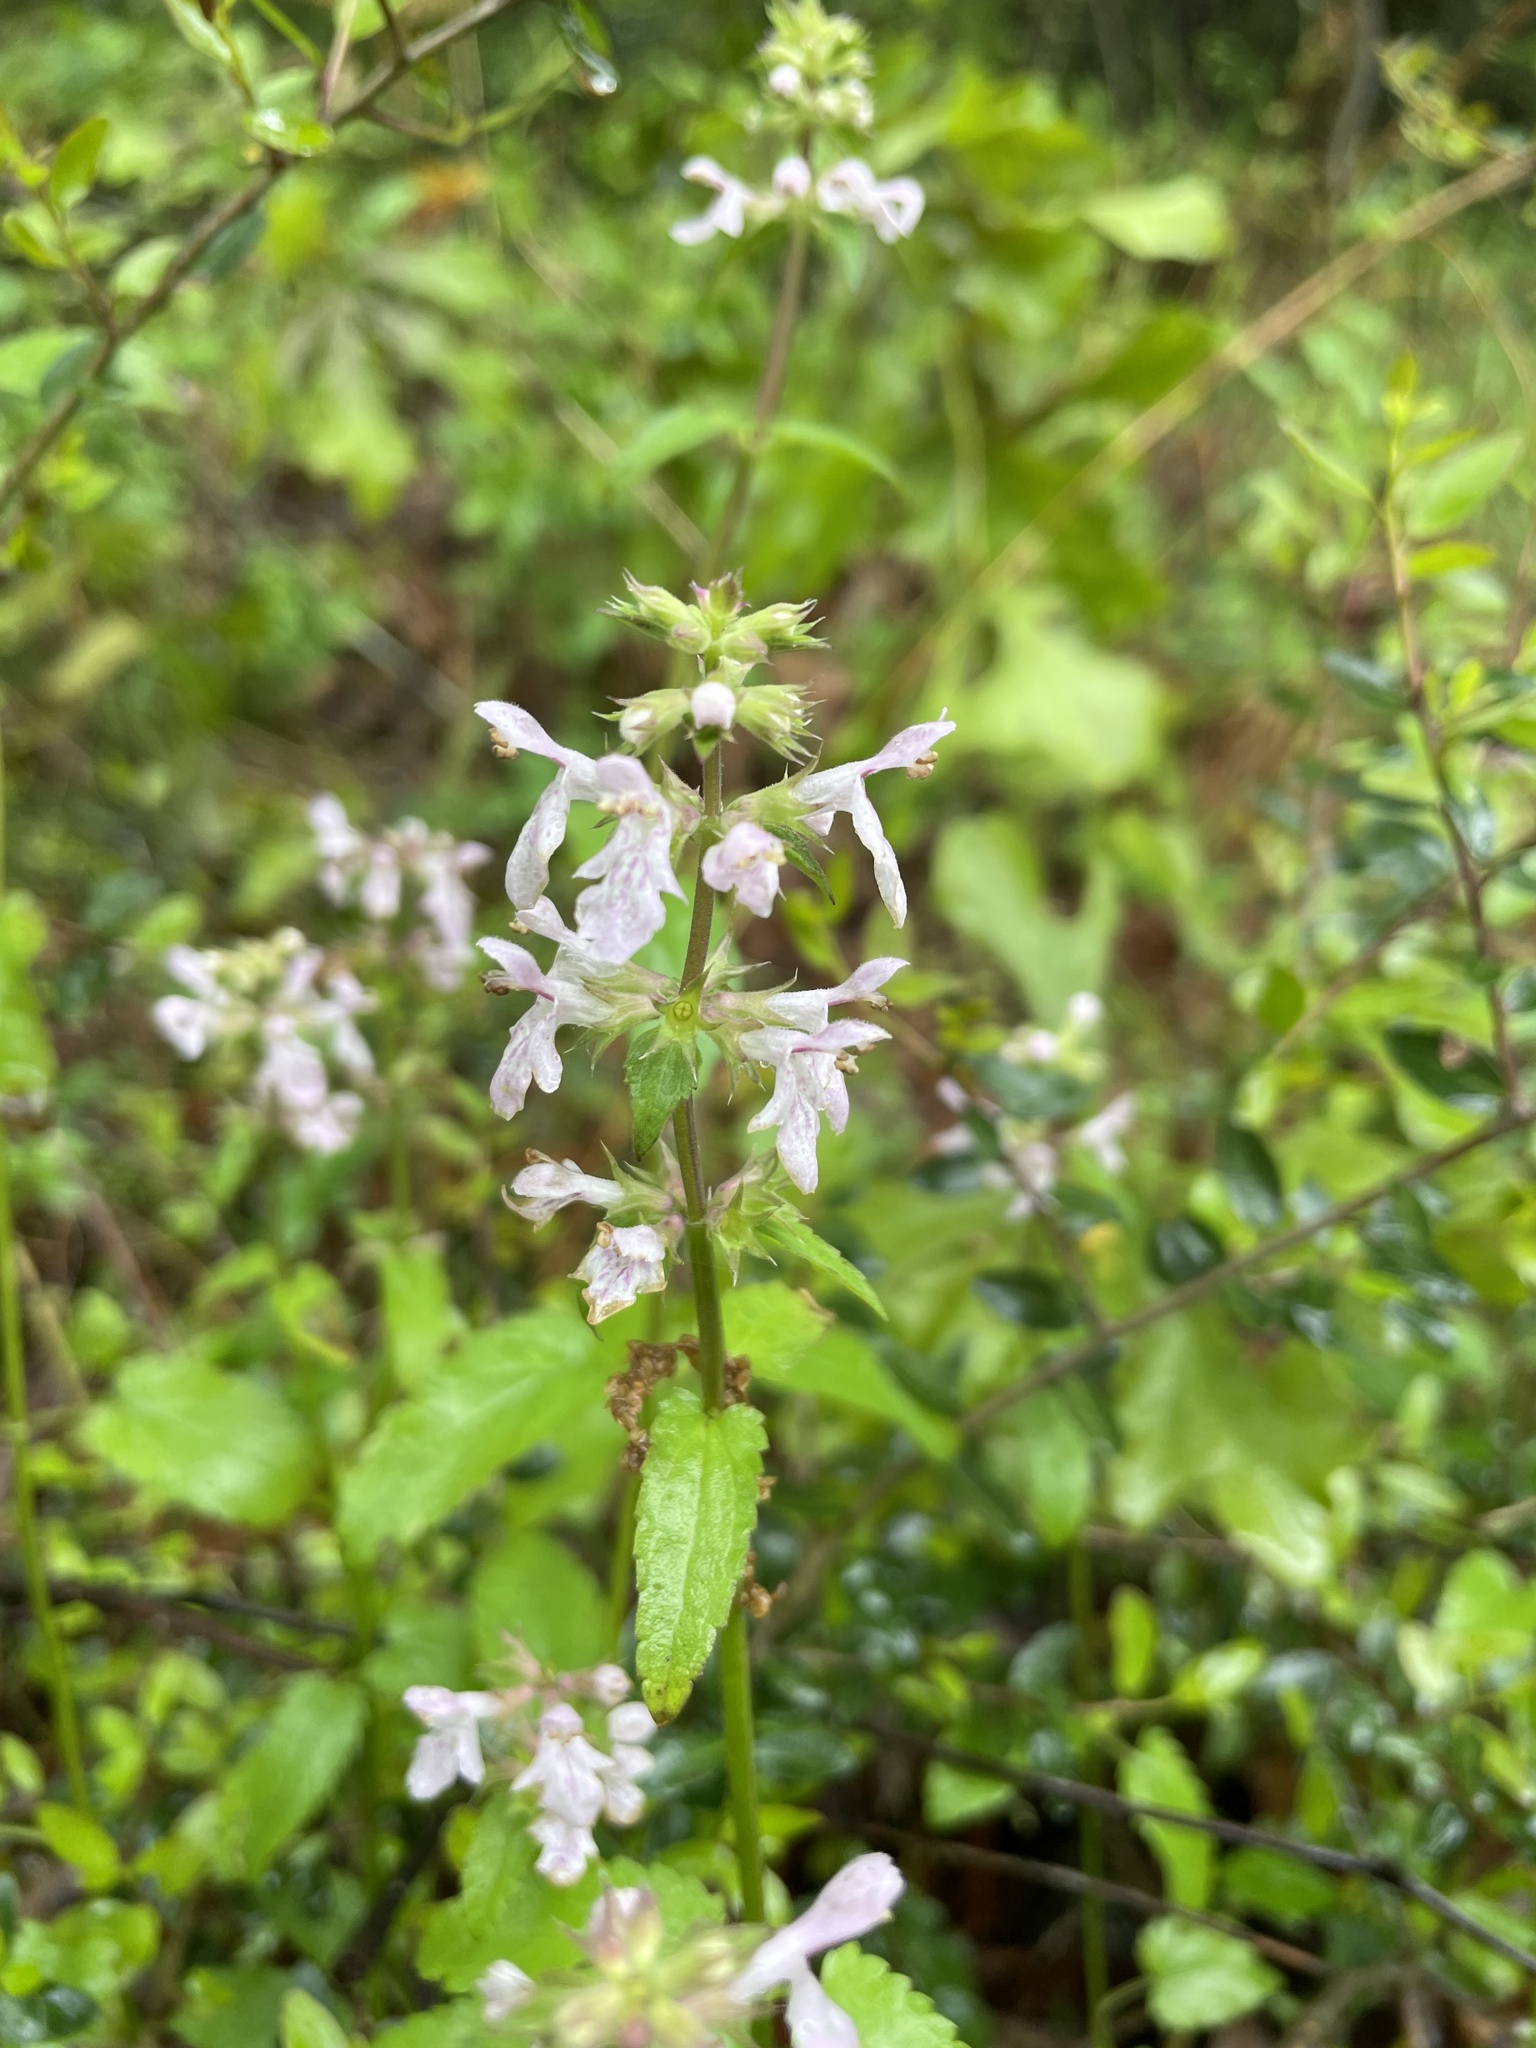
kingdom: Plantae
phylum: Tracheophyta
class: Magnoliopsida
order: Lamiales
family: Lamiaceae
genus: Stachys
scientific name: Stachys floridana
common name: Florida betony
